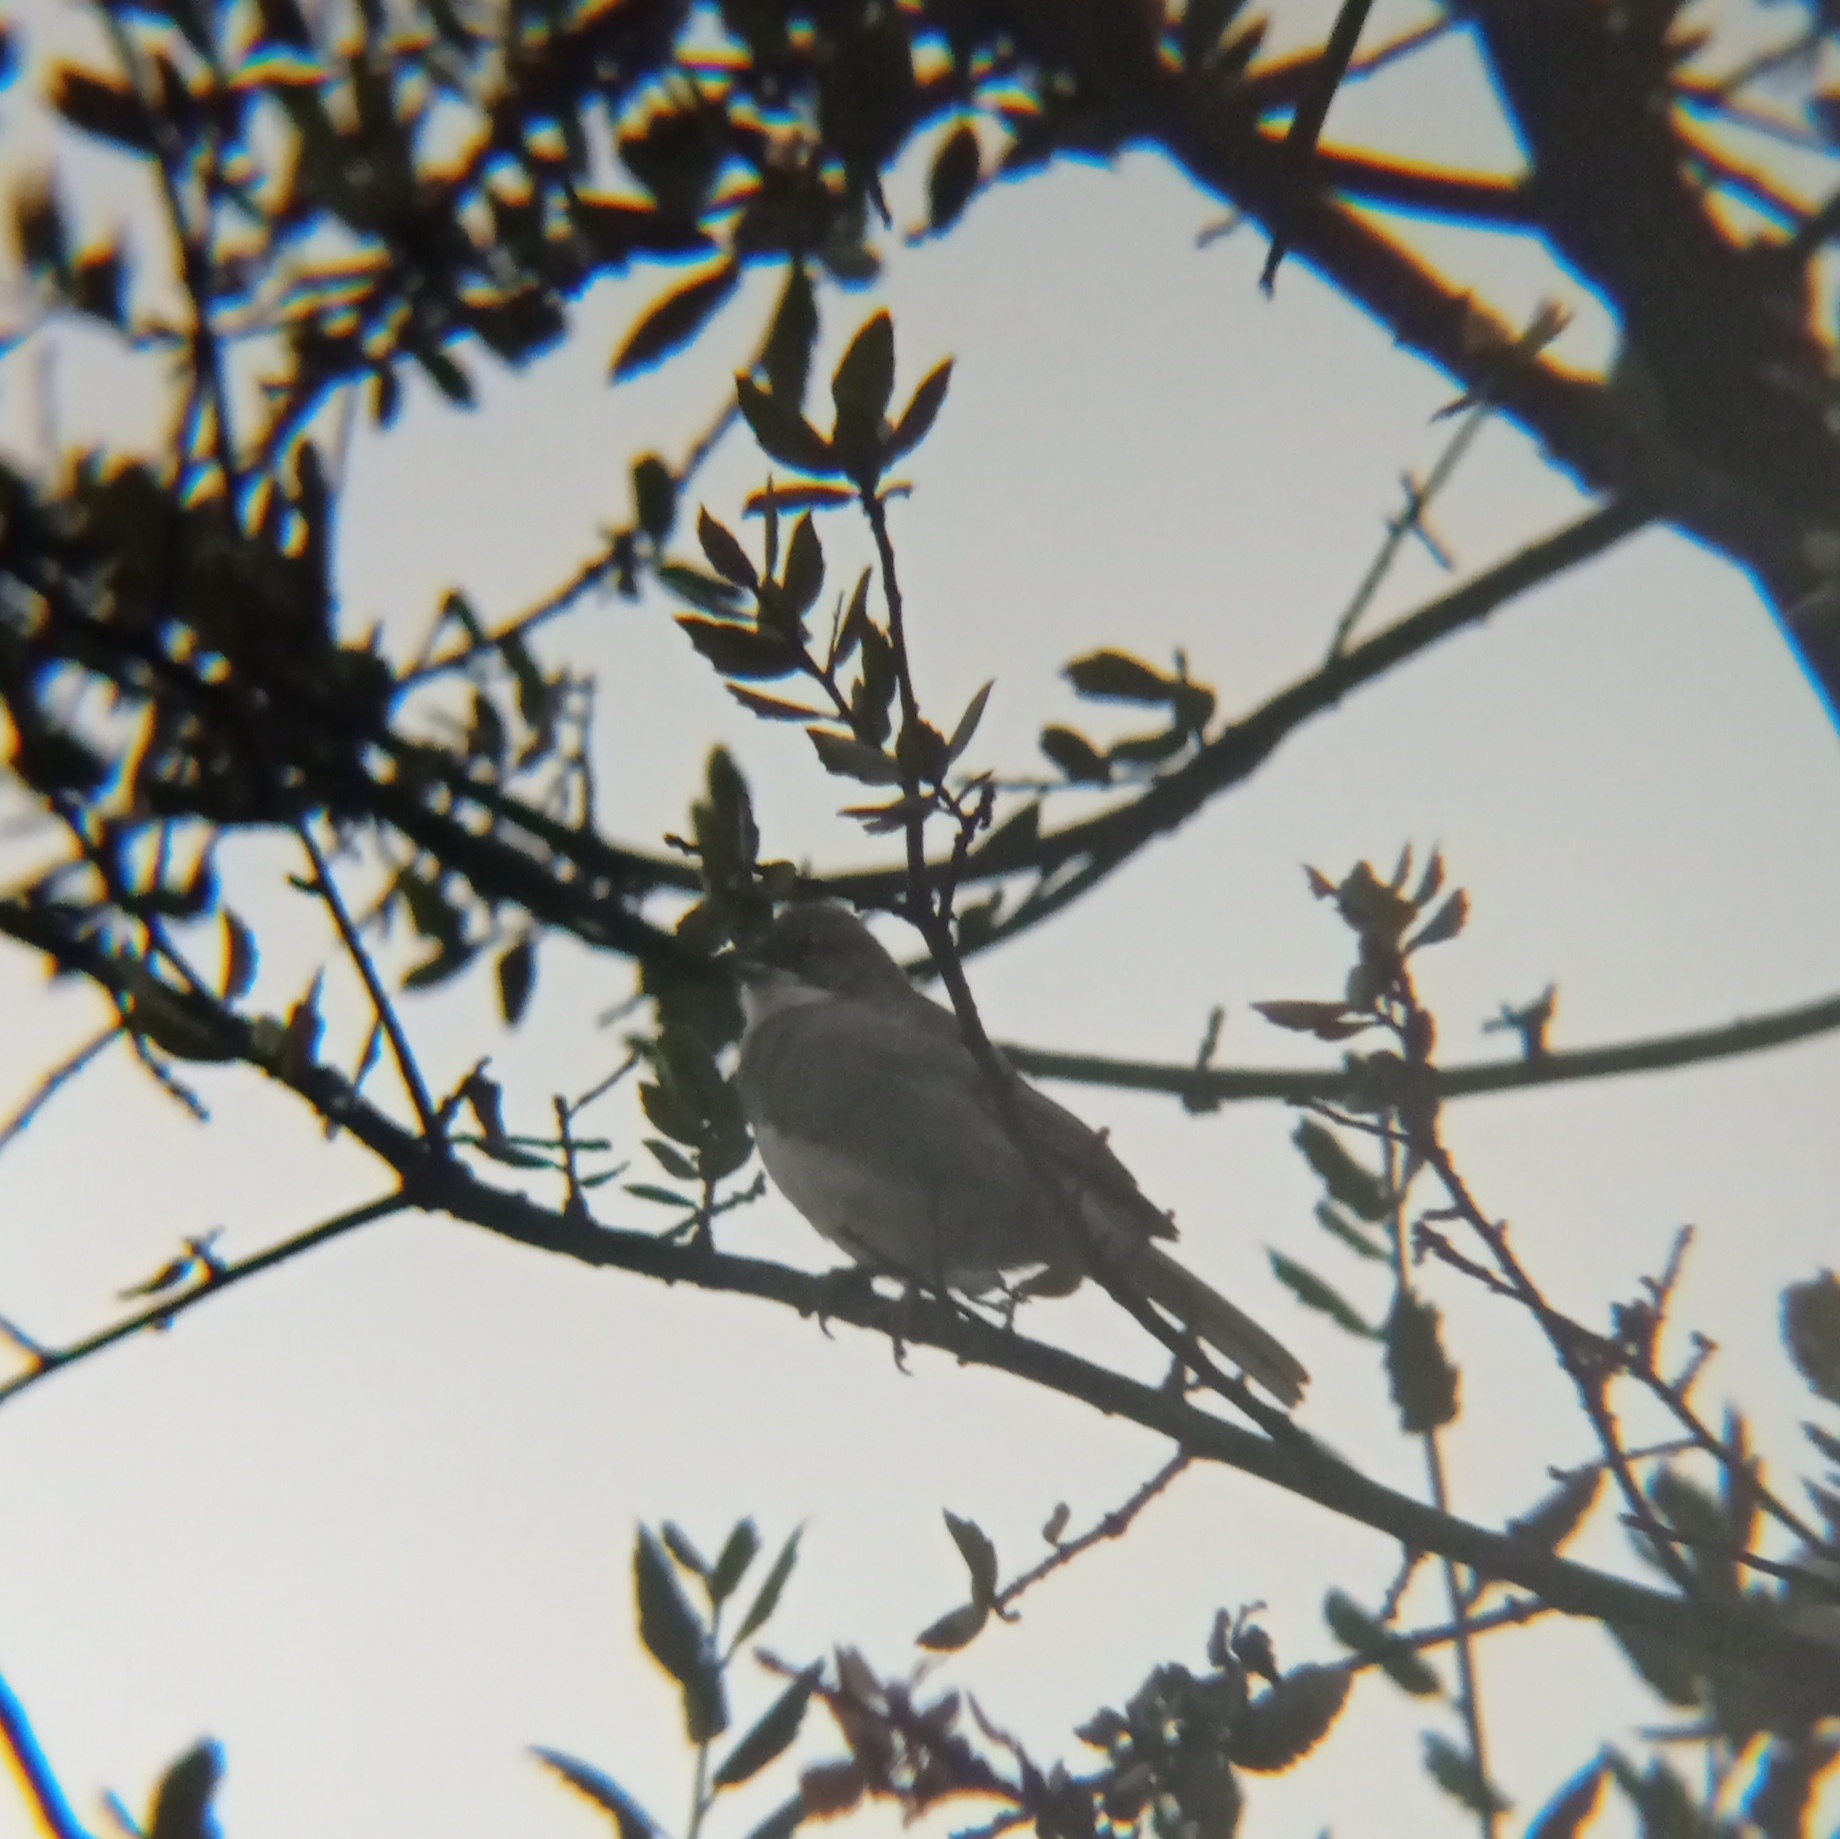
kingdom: Animalia
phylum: Chordata
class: Aves
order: Passeriformes
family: Thraupidae
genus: Diuca
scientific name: Diuca diuca
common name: Common diuca finch
